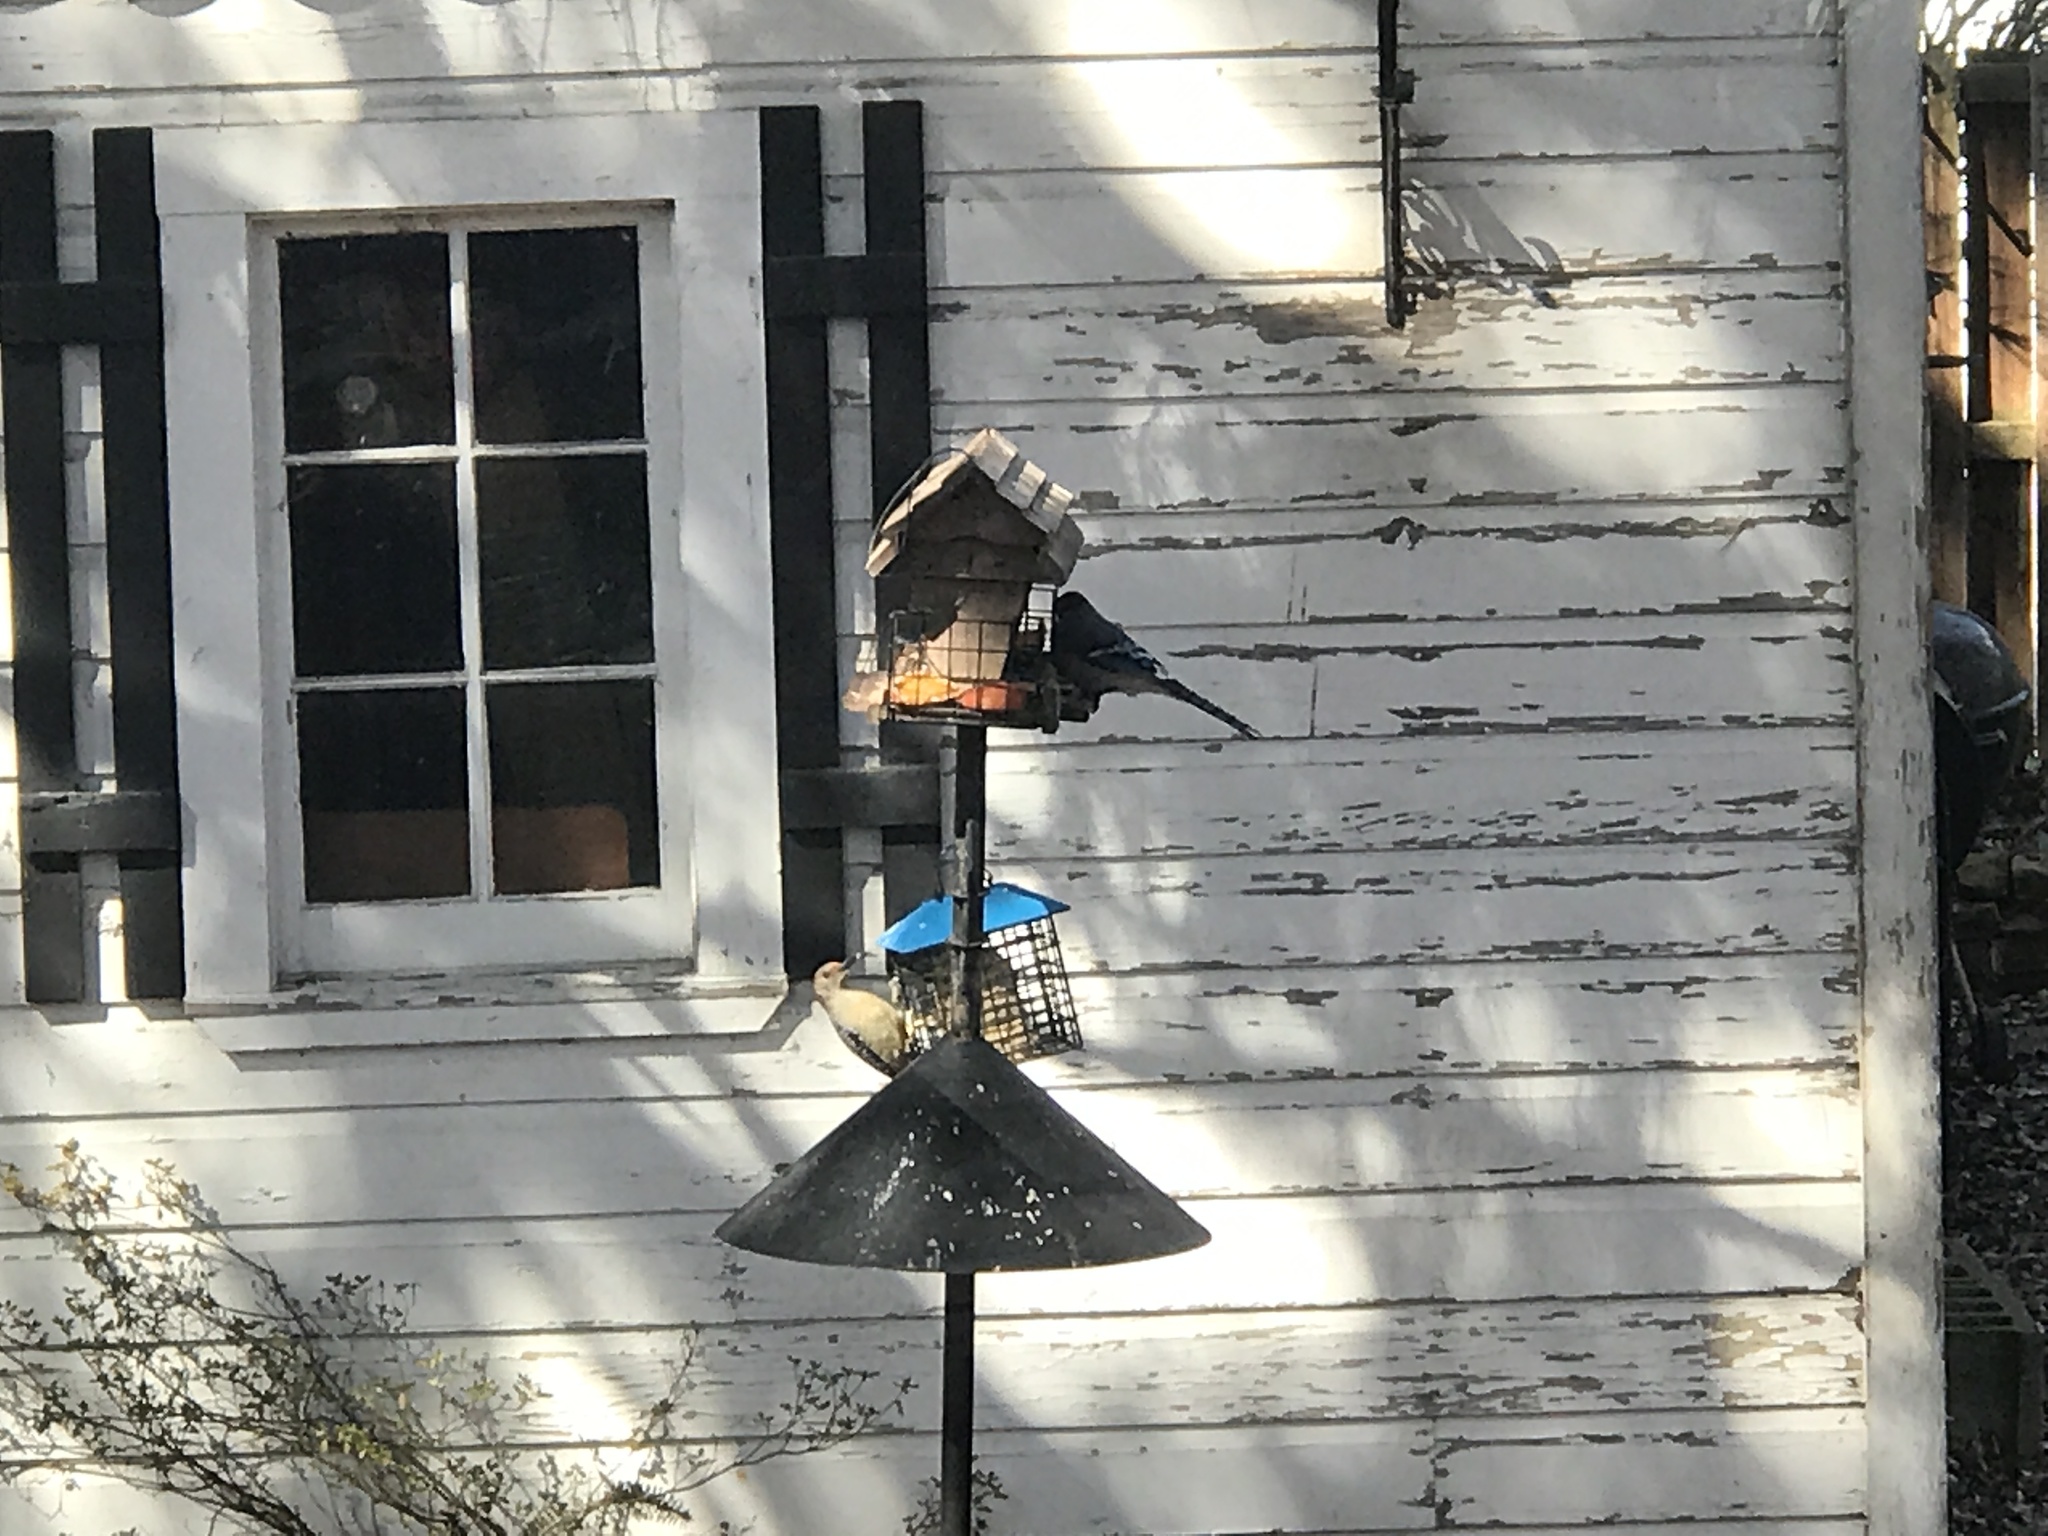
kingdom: Animalia
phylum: Chordata
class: Aves
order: Passeriformes
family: Corvidae
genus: Cyanocitta
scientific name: Cyanocitta cristata
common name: Blue jay
